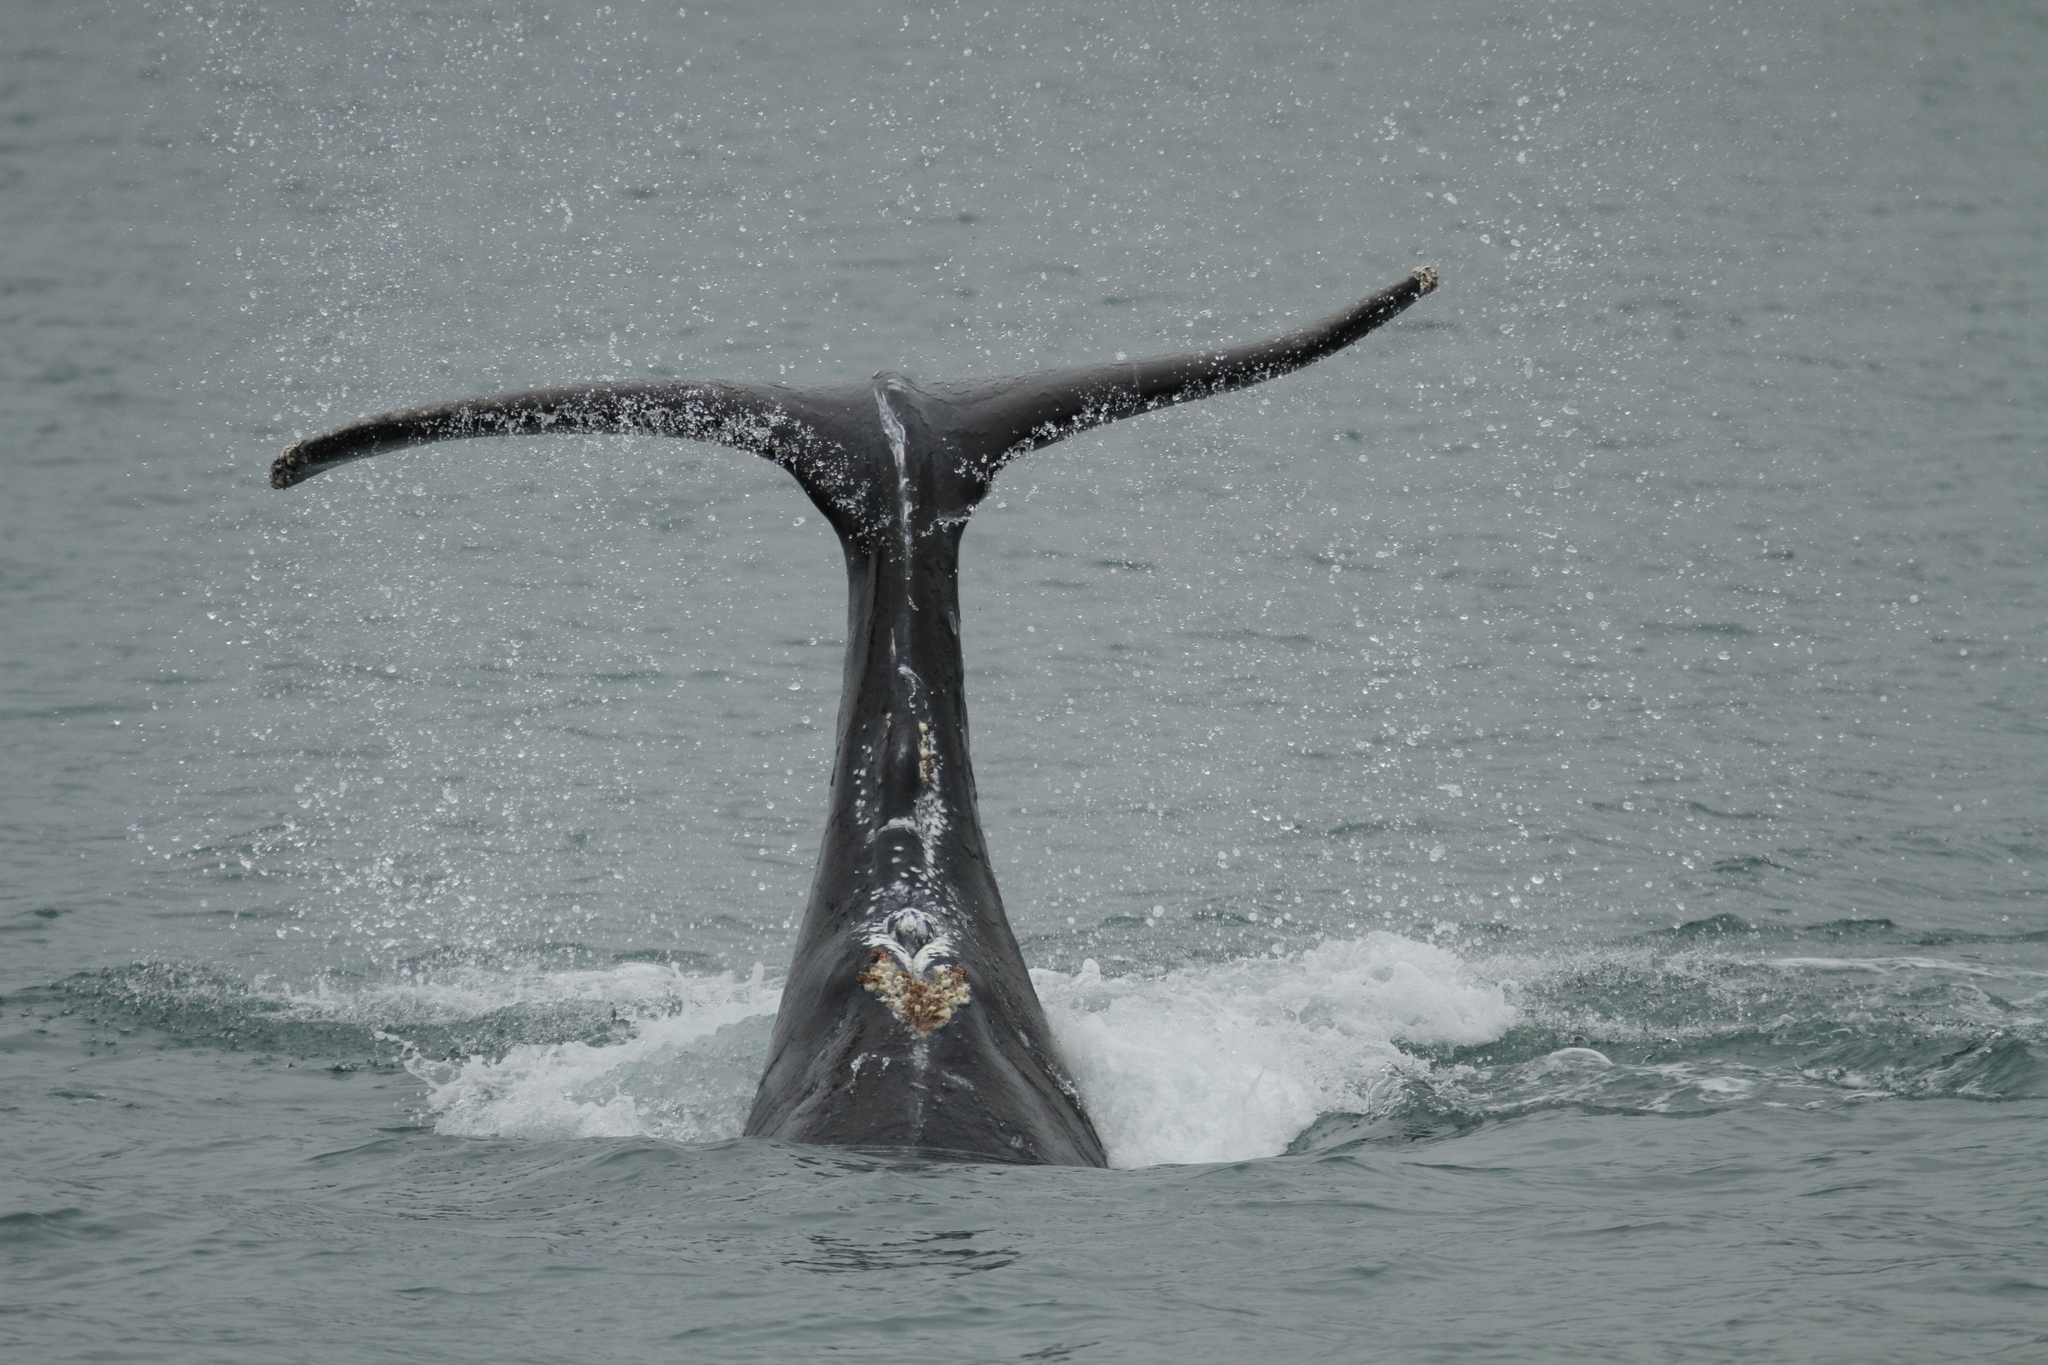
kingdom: Animalia
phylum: Chordata
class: Mammalia
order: Cetacea
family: Balaenopteridae
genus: Megaptera
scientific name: Megaptera novaeangliae
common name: Humpback whale
